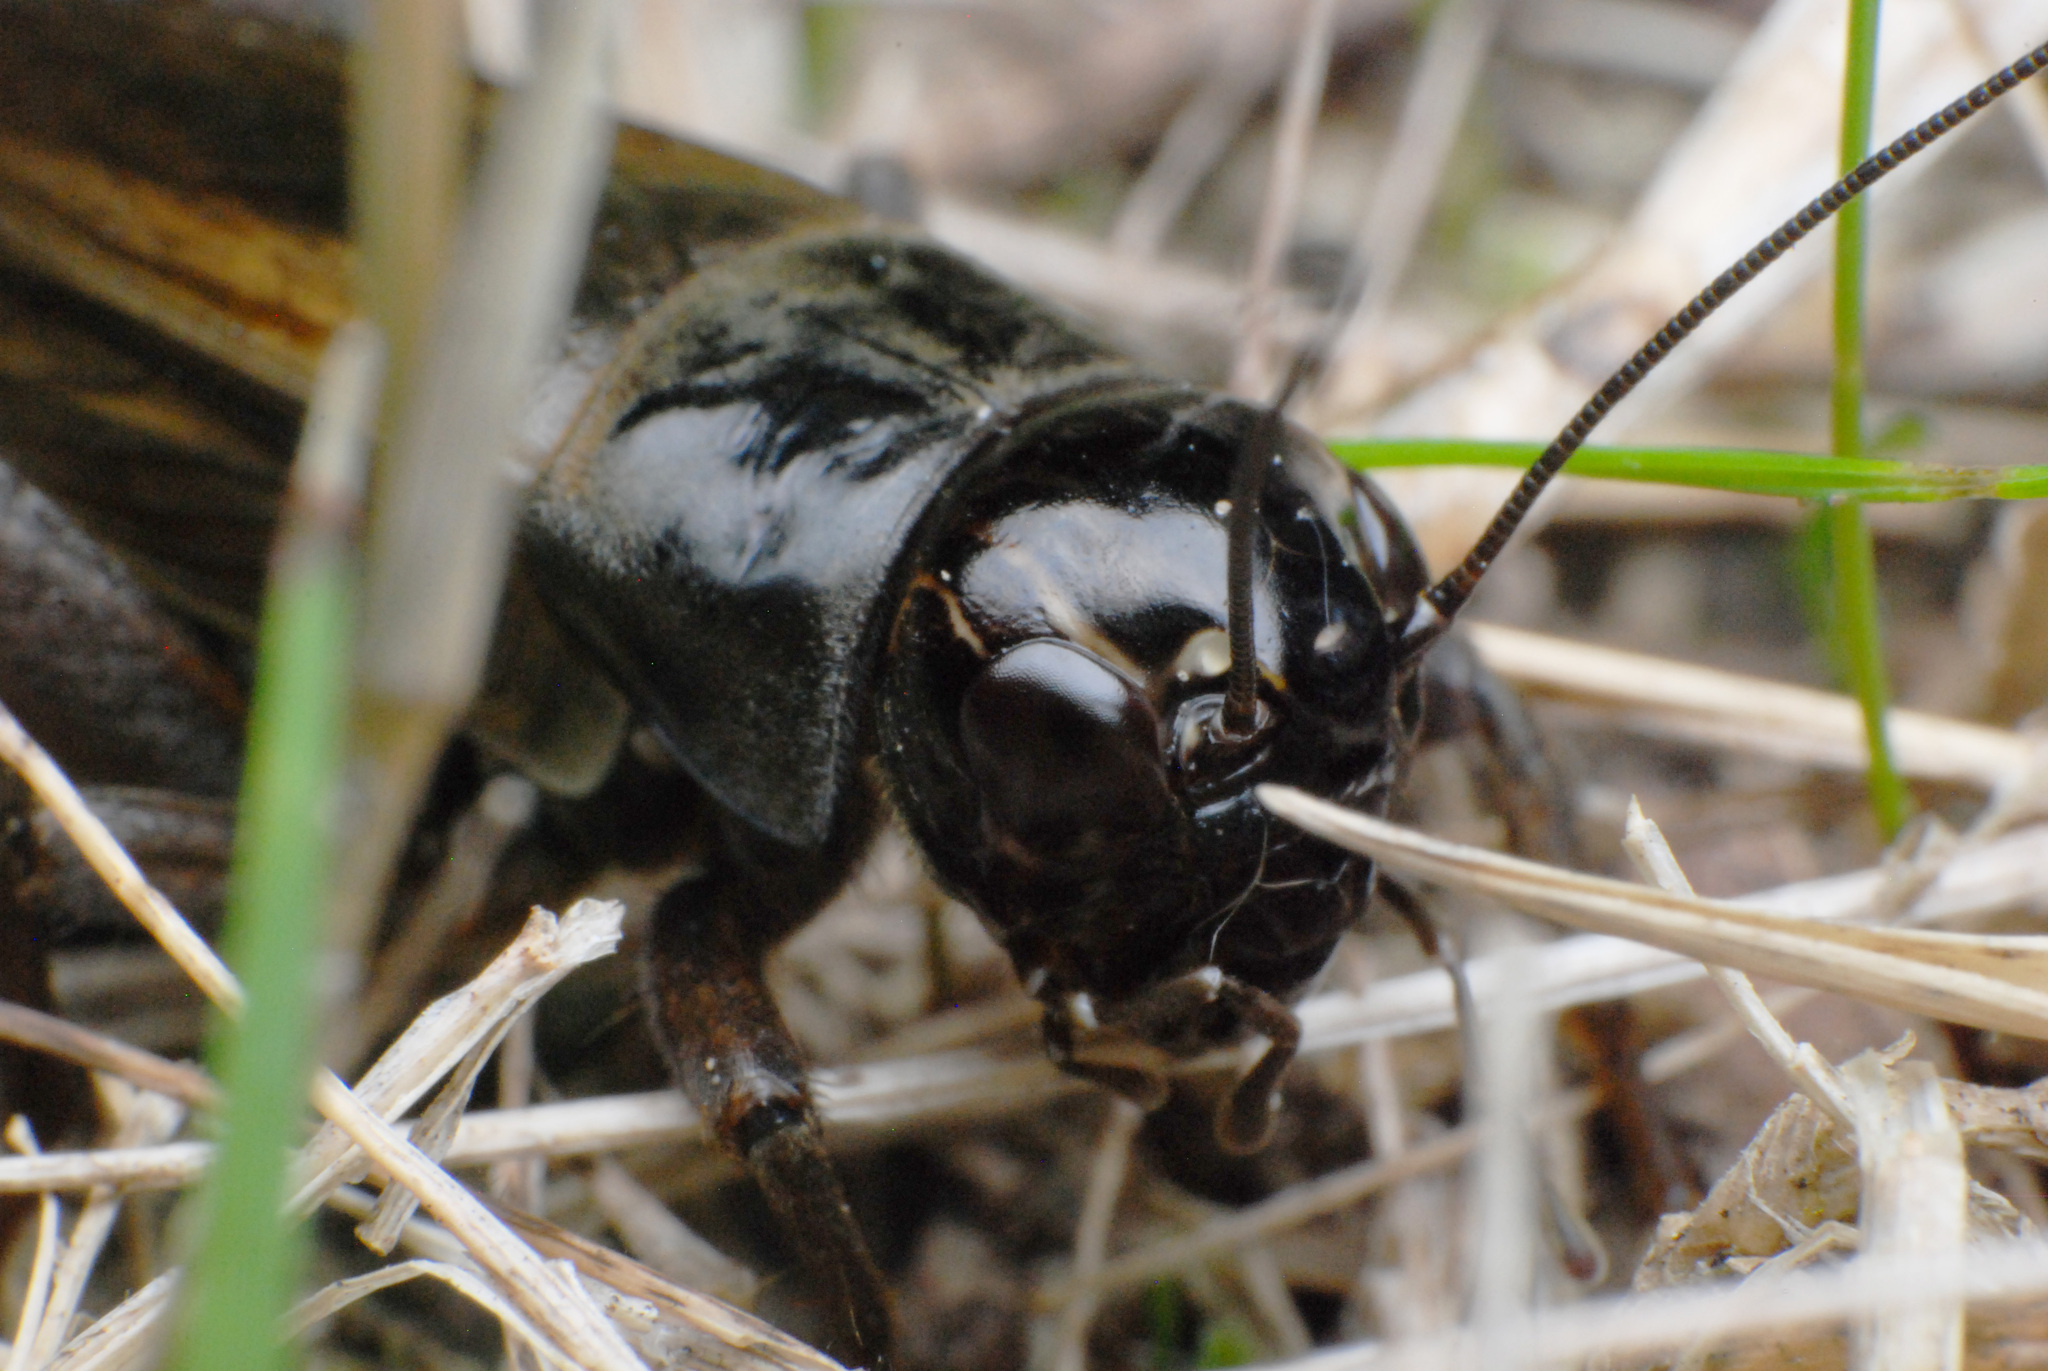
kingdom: Animalia
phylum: Arthropoda
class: Insecta
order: Orthoptera
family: Gryllidae
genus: Teleogryllus
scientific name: Teleogryllus commodus
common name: Black field cricket
